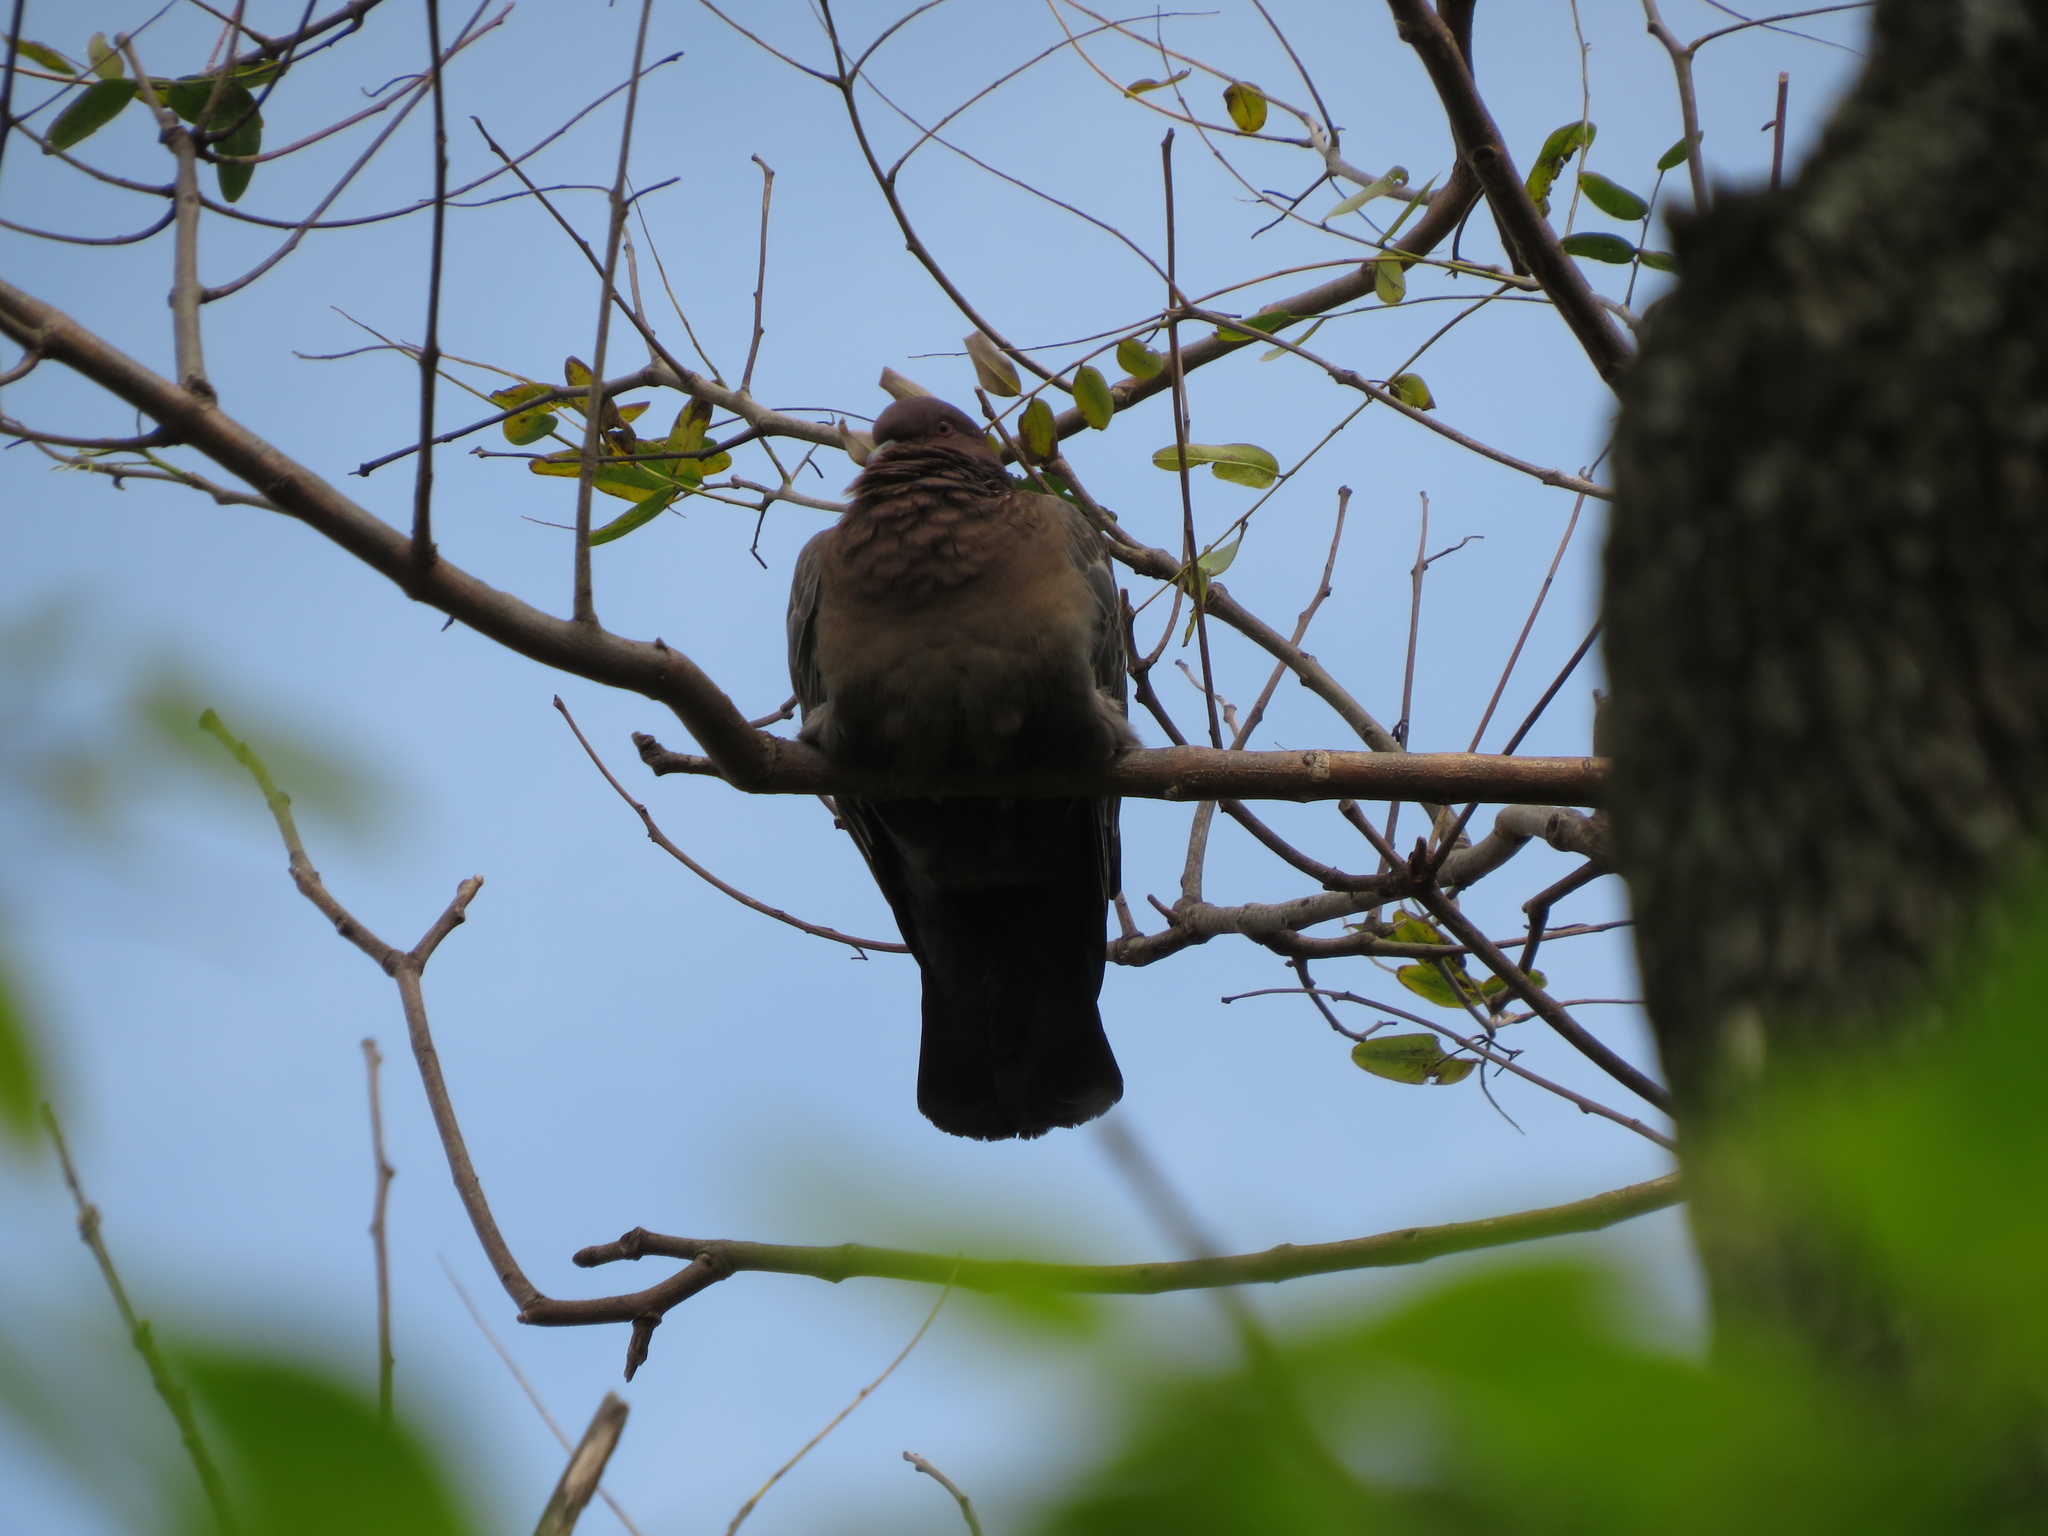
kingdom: Animalia
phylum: Chordata
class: Aves
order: Columbiformes
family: Columbidae
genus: Patagioenas
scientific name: Patagioenas picazuro
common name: Picazuro pigeon
